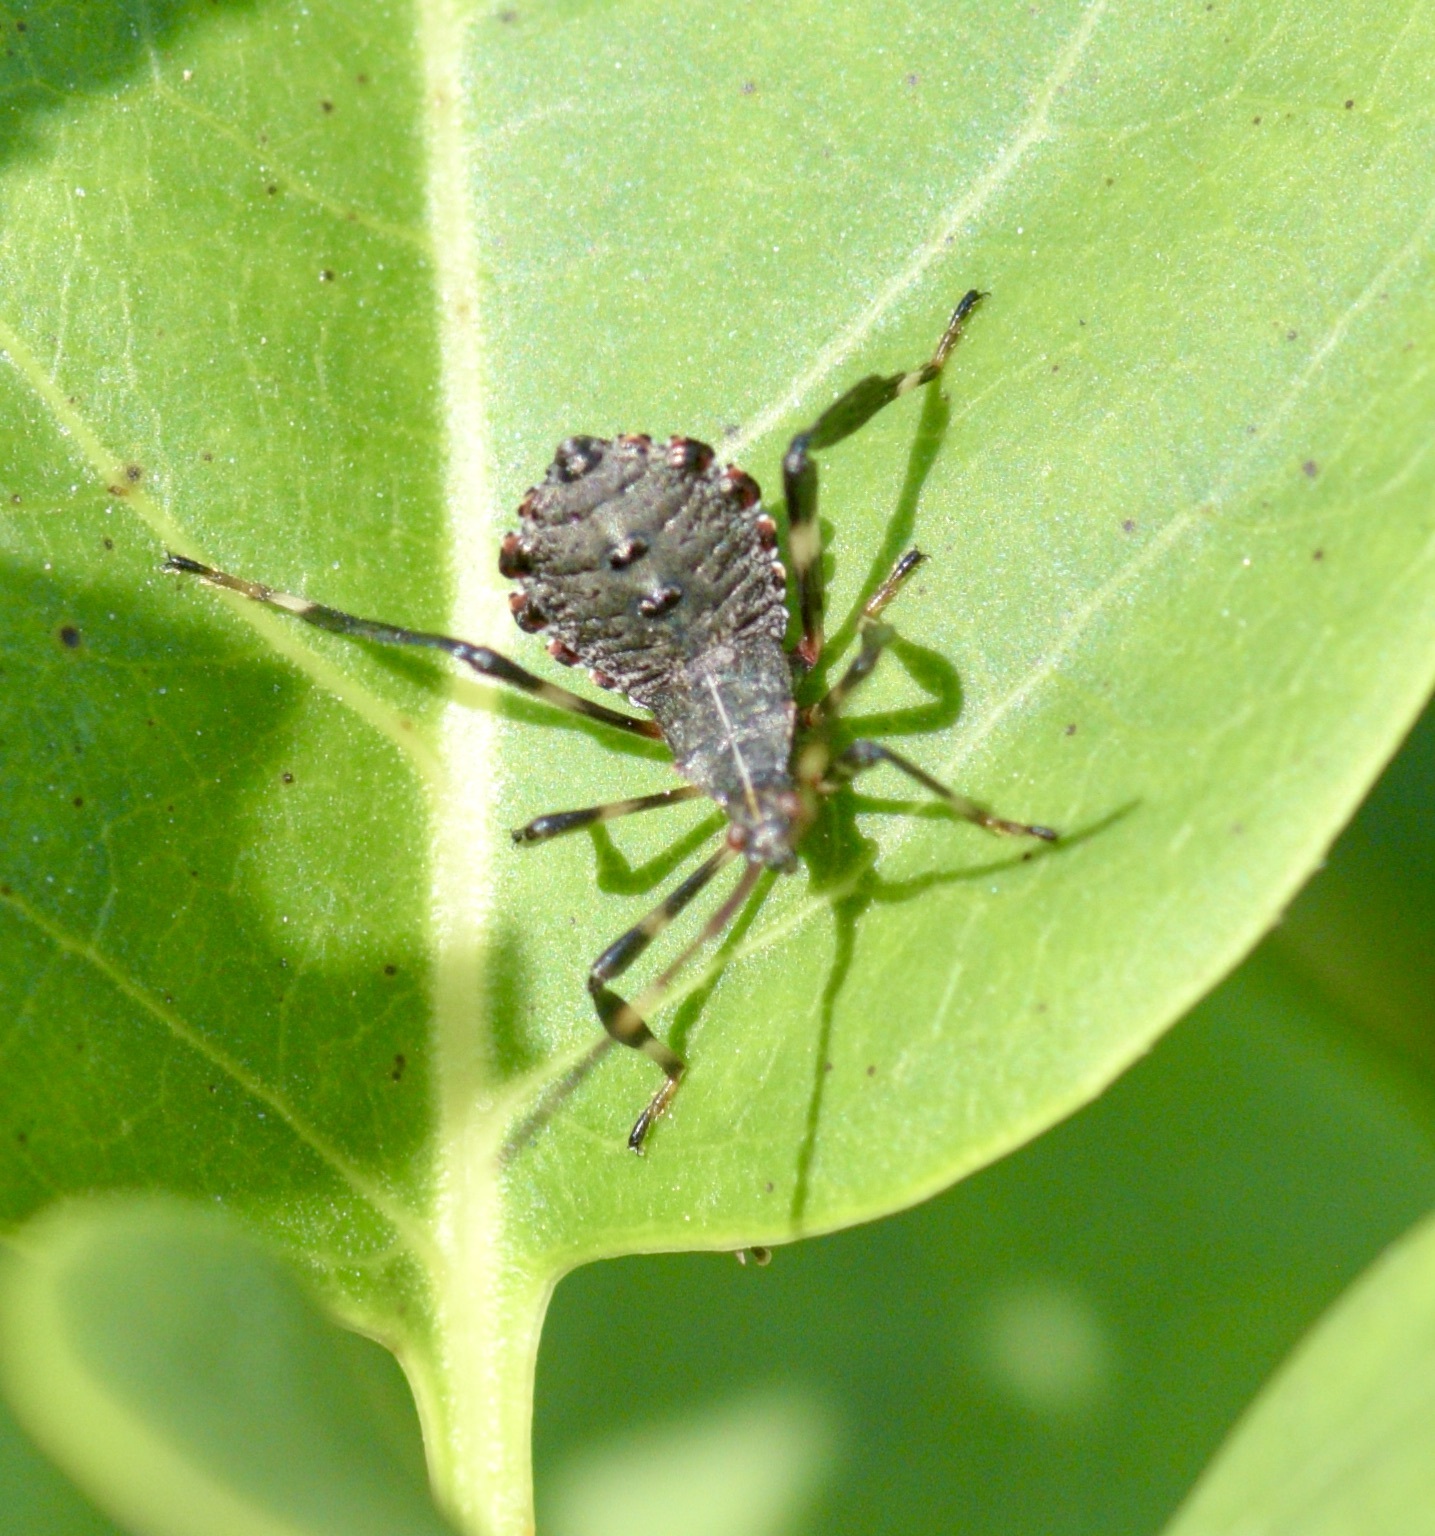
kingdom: Animalia
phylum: Arthropoda
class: Insecta
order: Hemiptera
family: Coreidae
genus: Acanthocephala
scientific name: Acanthocephala terminalis
